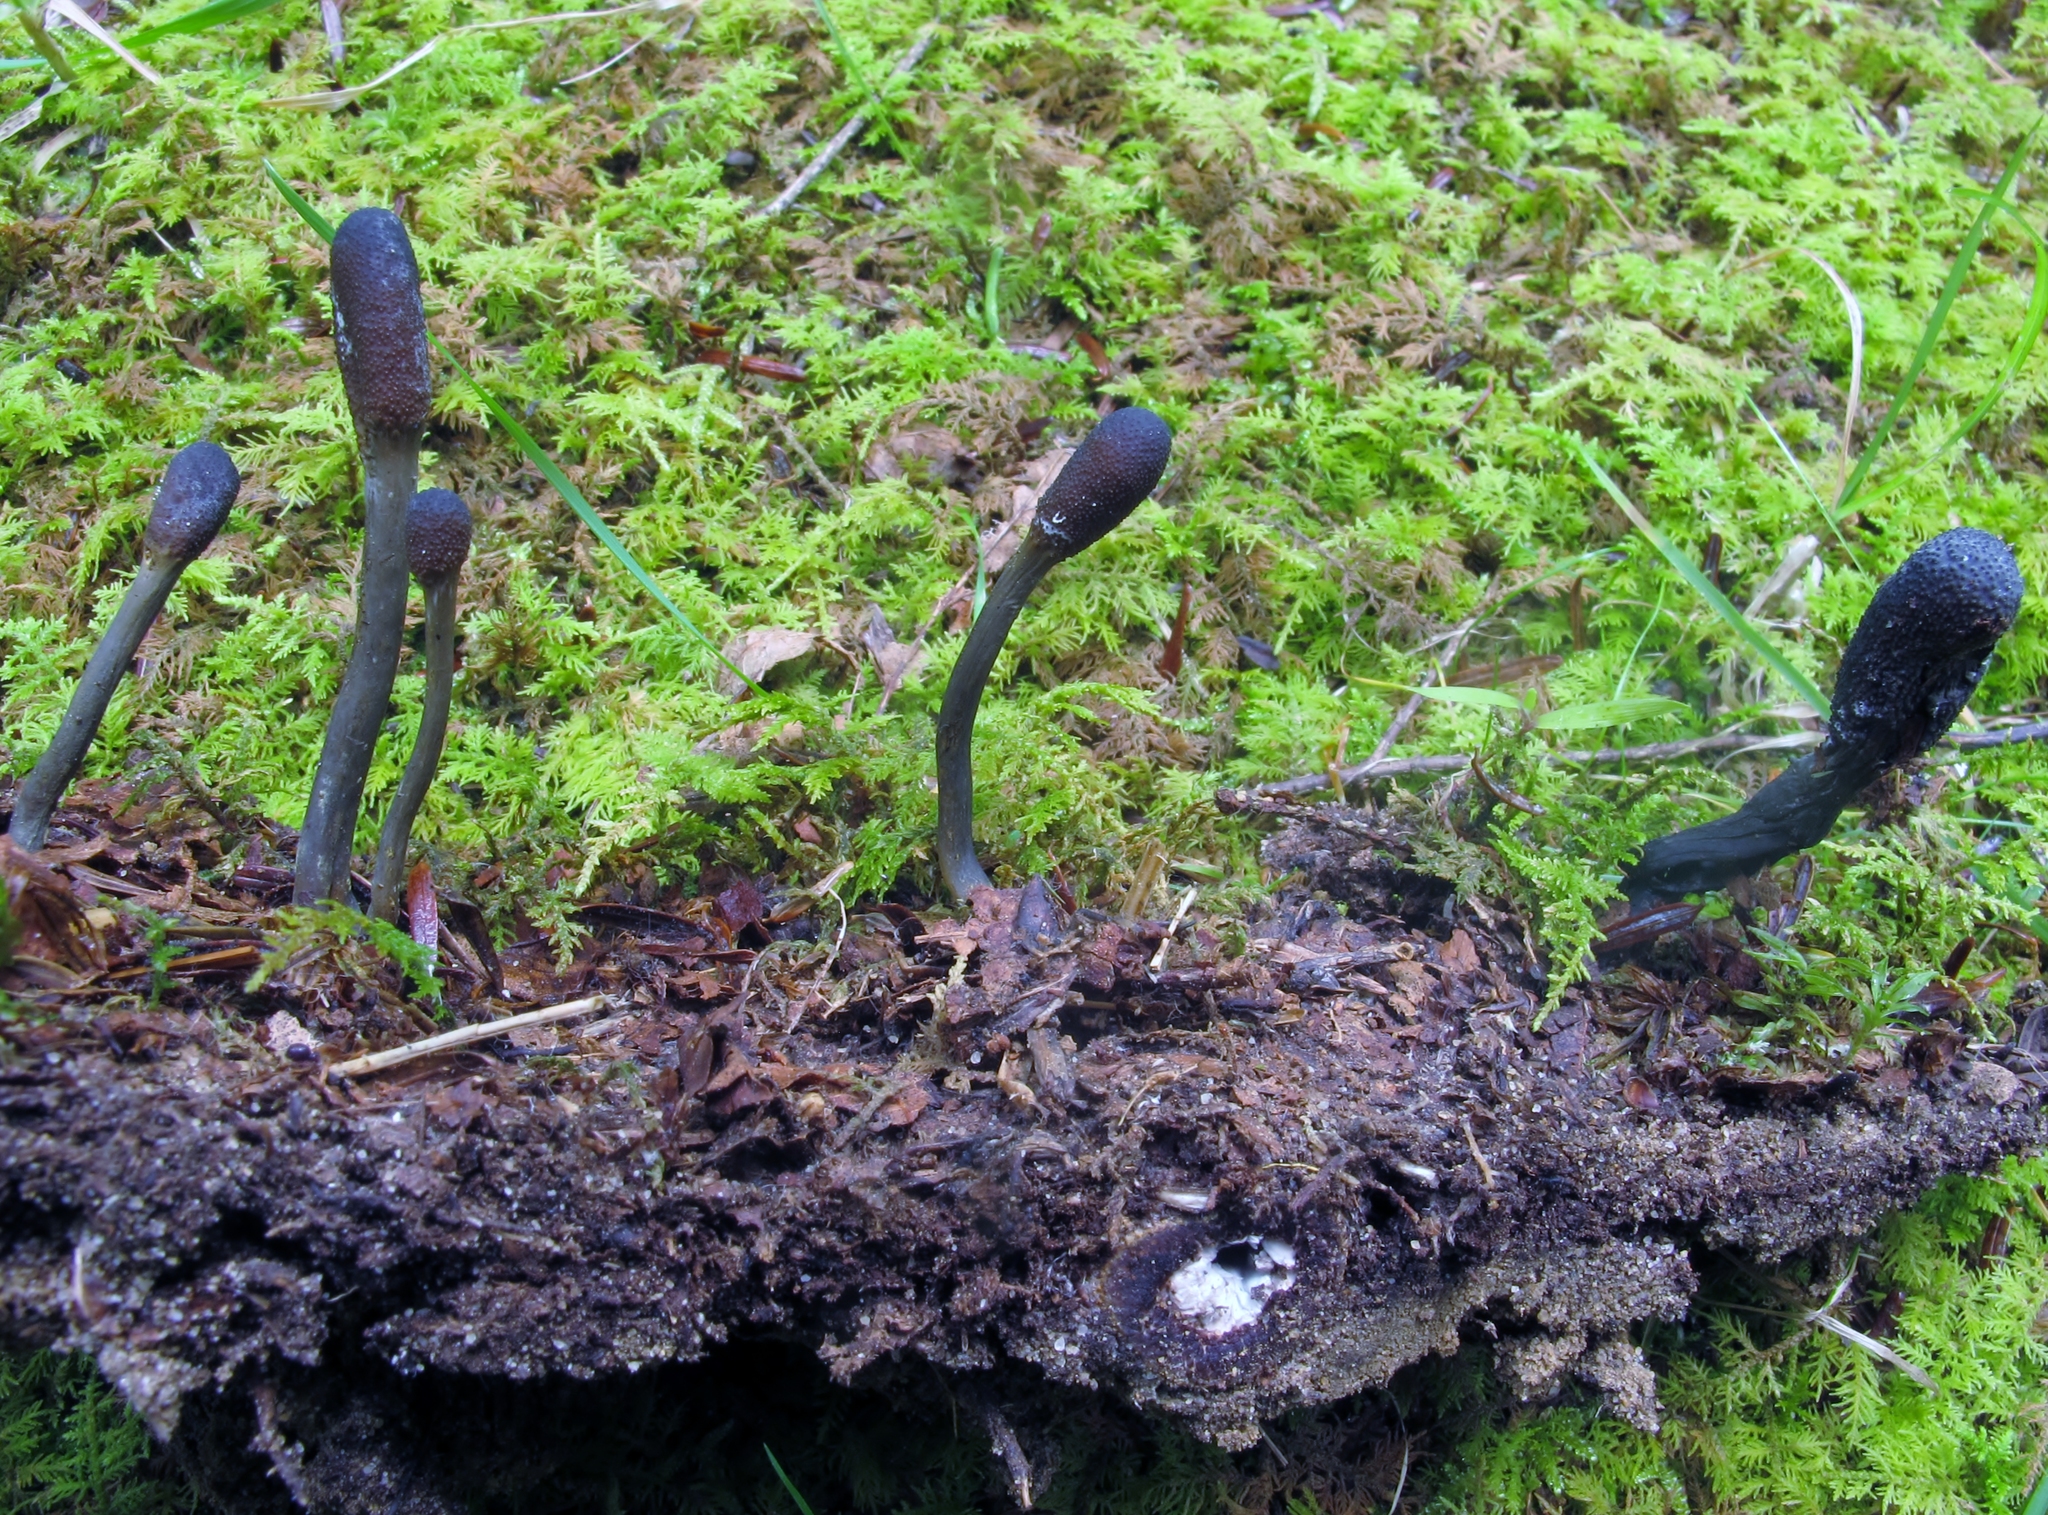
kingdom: Fungi
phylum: Ascomycota
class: Sordariomycetes
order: Hypocreales
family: Ophiocordycipitaceae
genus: Tolypocladium
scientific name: Tolypocladium ophioglossoides
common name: Snaketongue truffleclub
